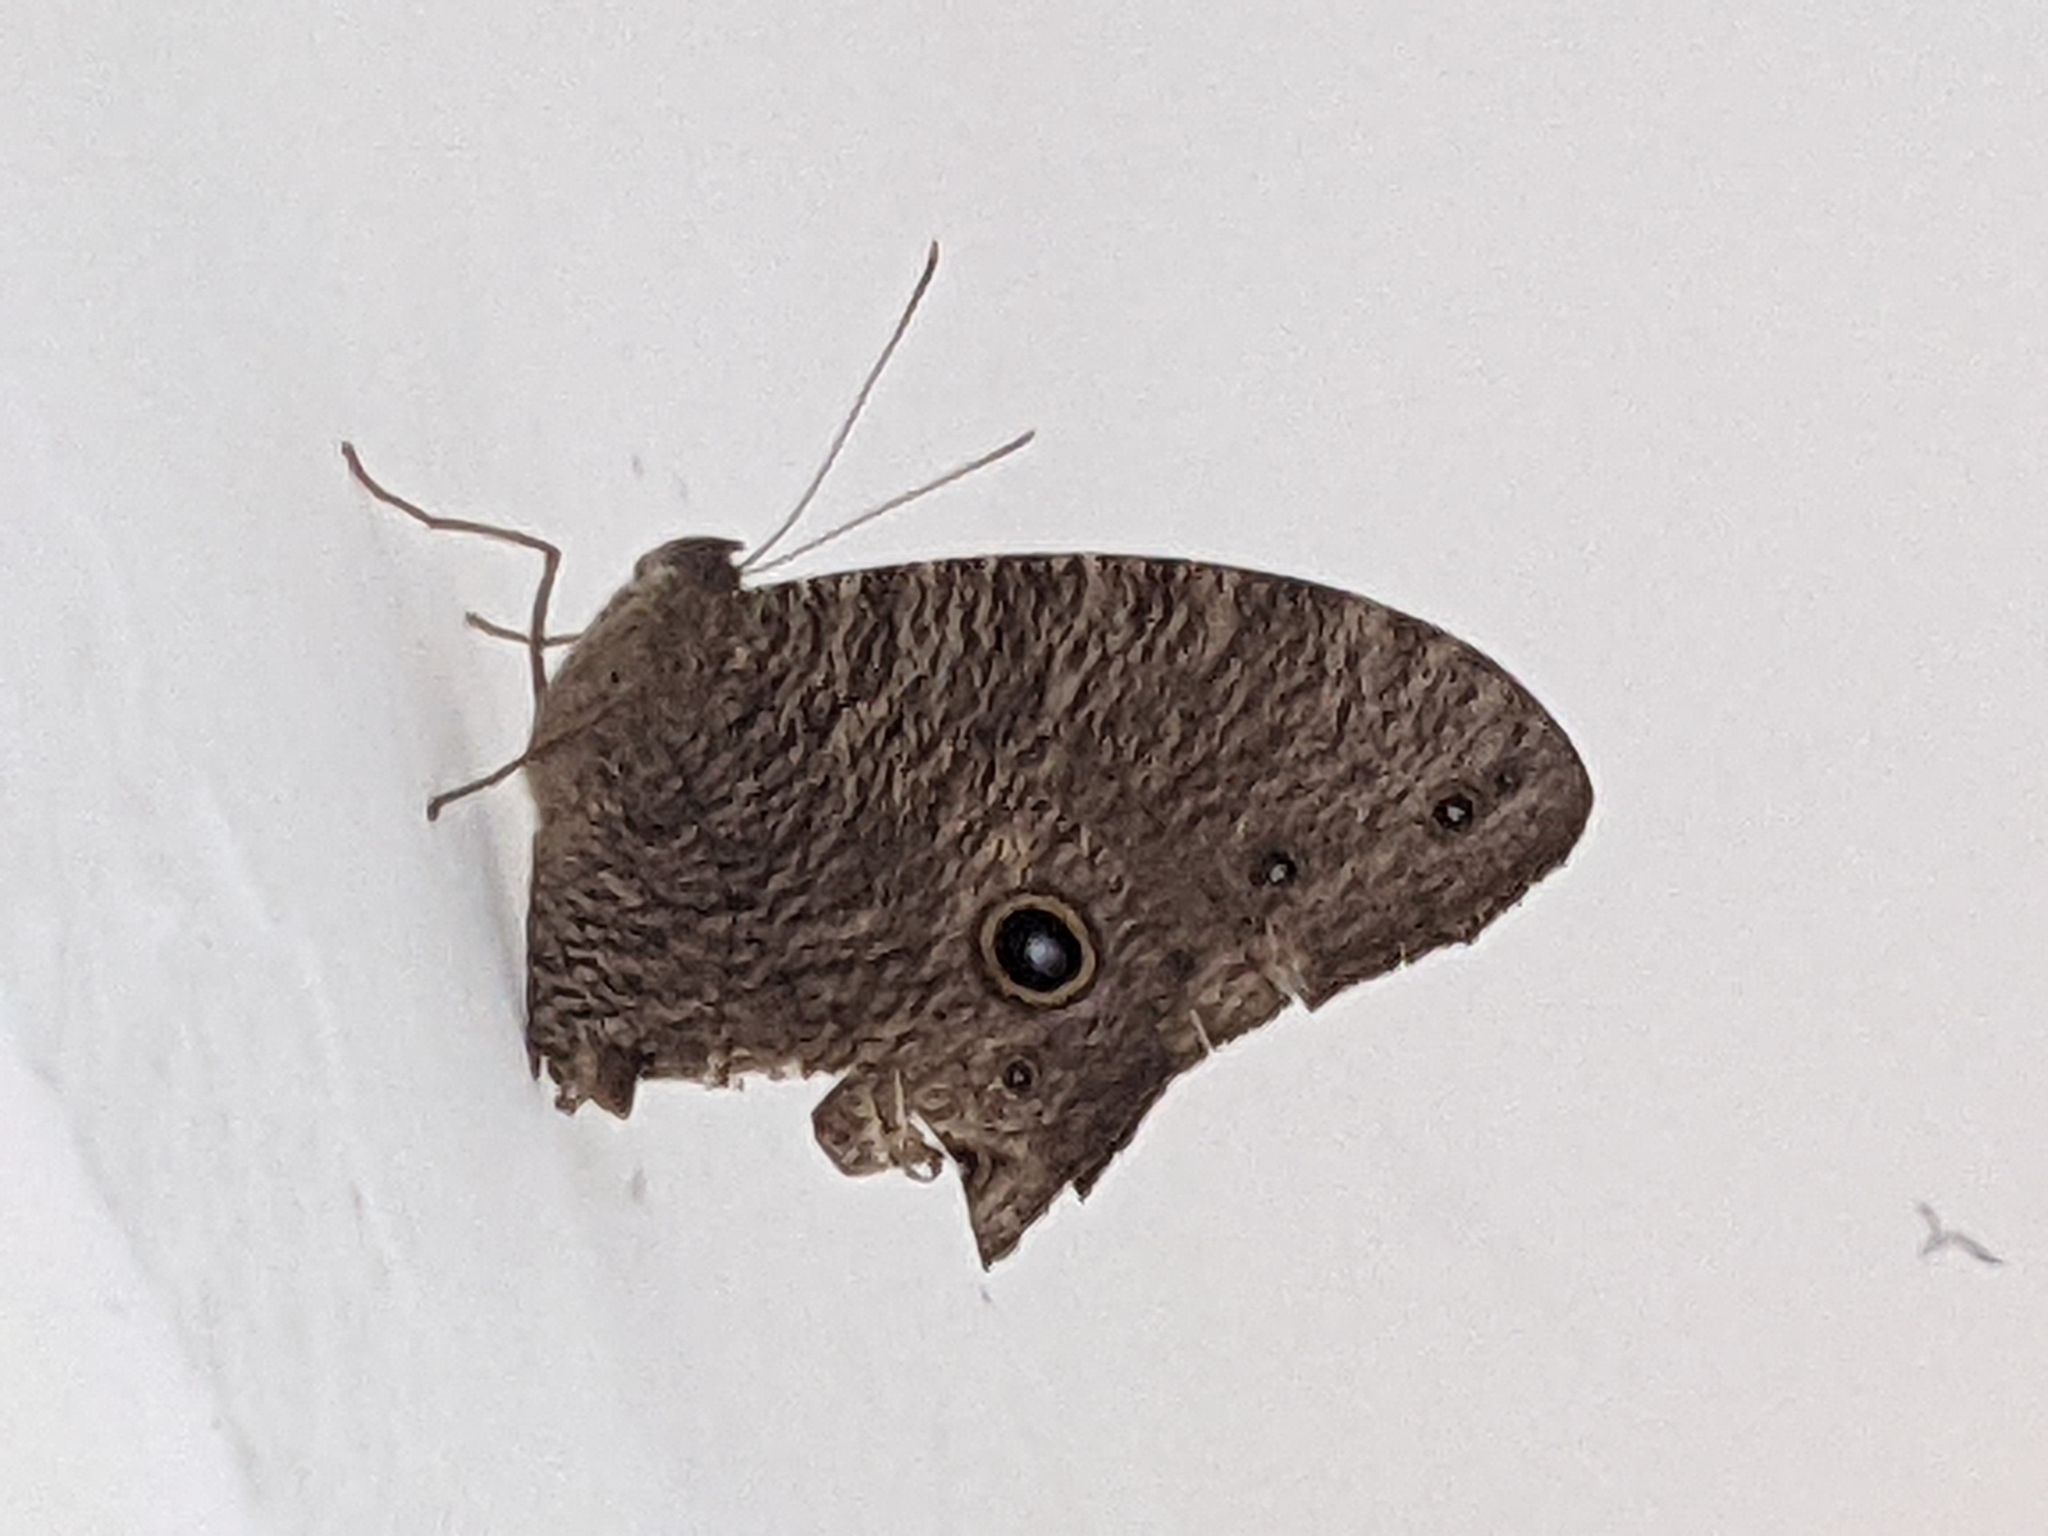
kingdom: Animalia
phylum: Arthropoda
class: Insecta
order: Lepidoptera
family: Nymphalidae
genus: Melanitis
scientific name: Melanitis leda
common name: Twilight brown
